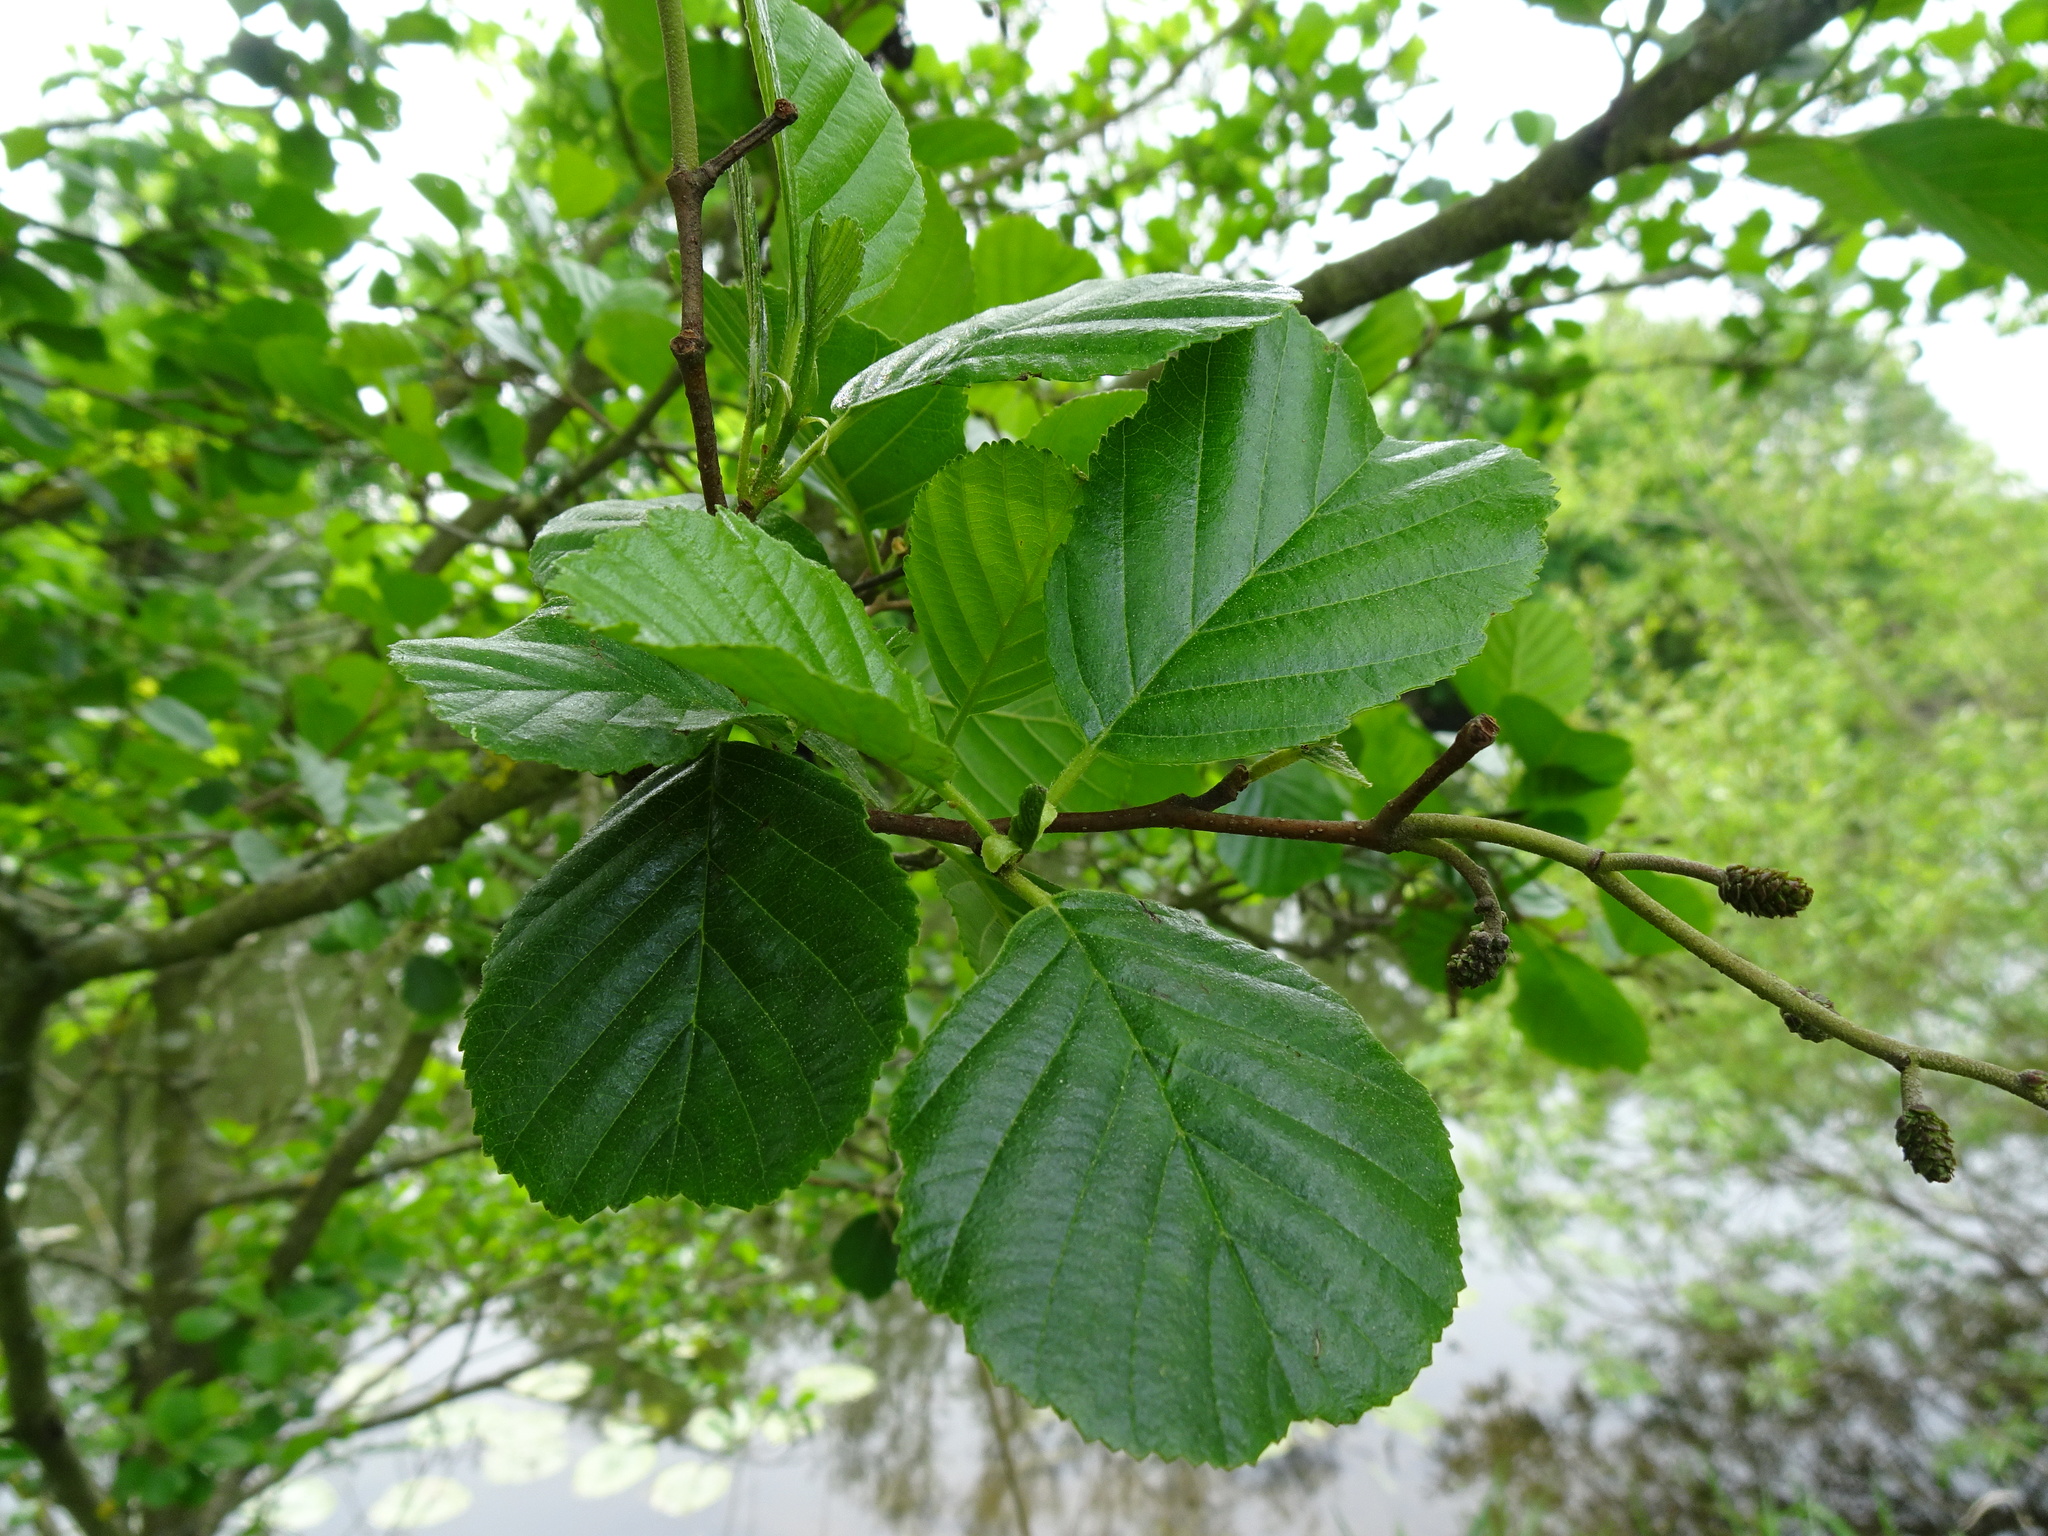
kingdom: Plantae
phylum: Tracheophyta
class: Magnoliopsida
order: Fagales
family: Betulaceae
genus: Alnus
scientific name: Alnus glutinosa
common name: Black alder
